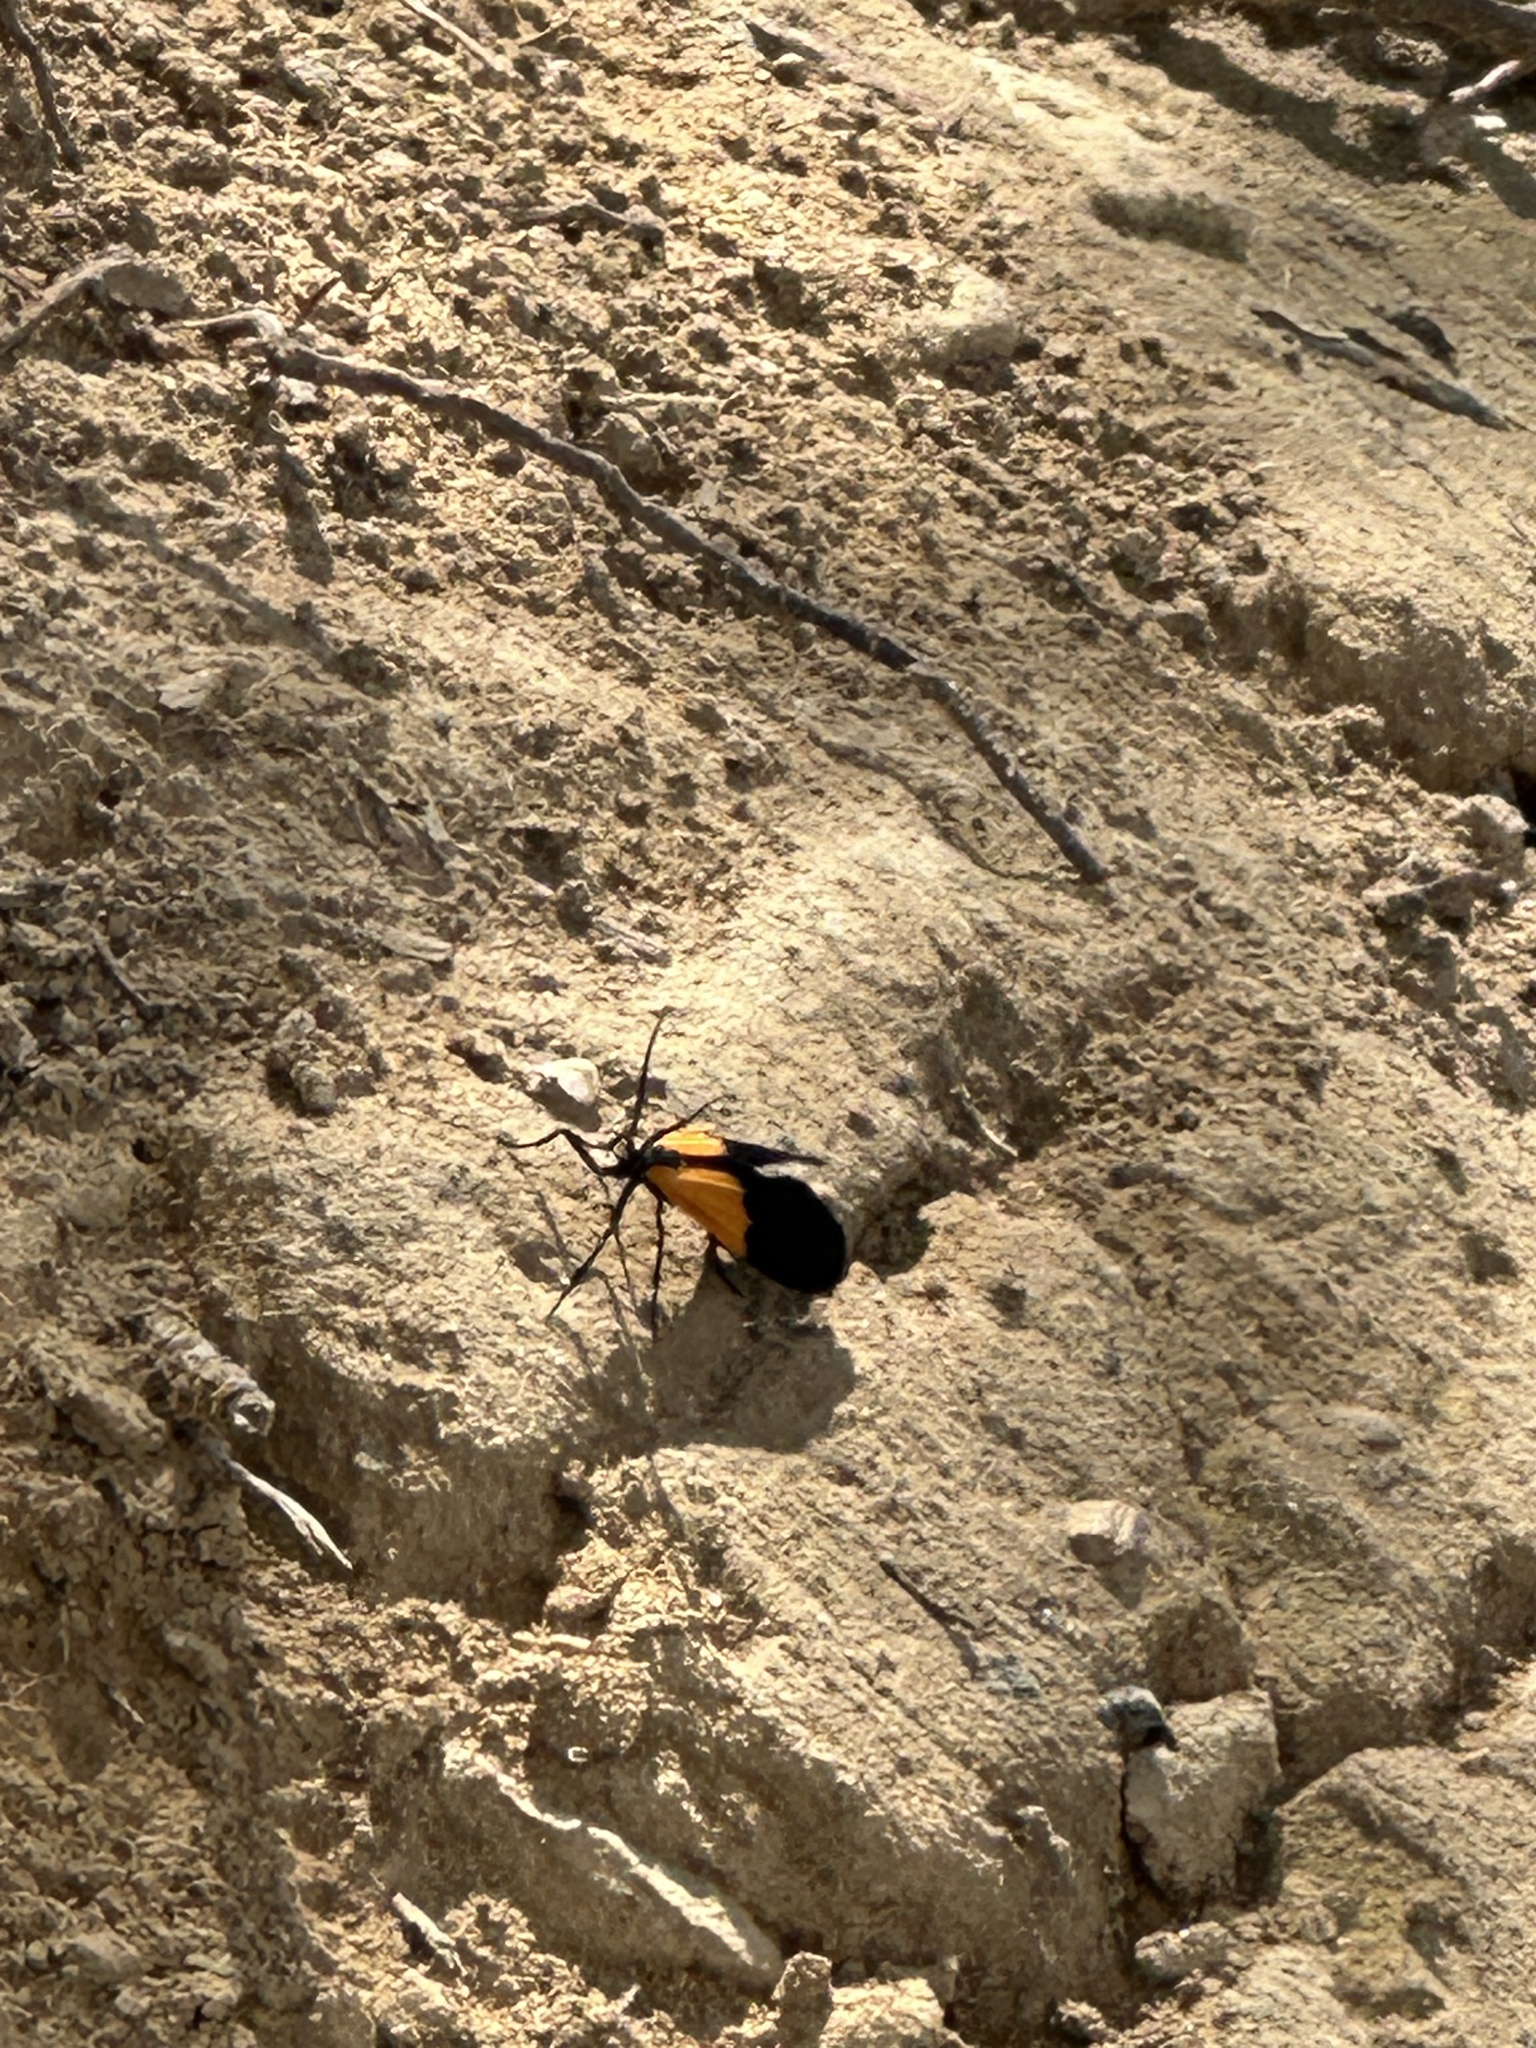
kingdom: Animalia
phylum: Arthropoda
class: Insecta
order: Lepidoptera
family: Erebidae
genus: Lycomorpha
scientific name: Lycomorpha pholus
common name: Black-and-yellow lichen moth
